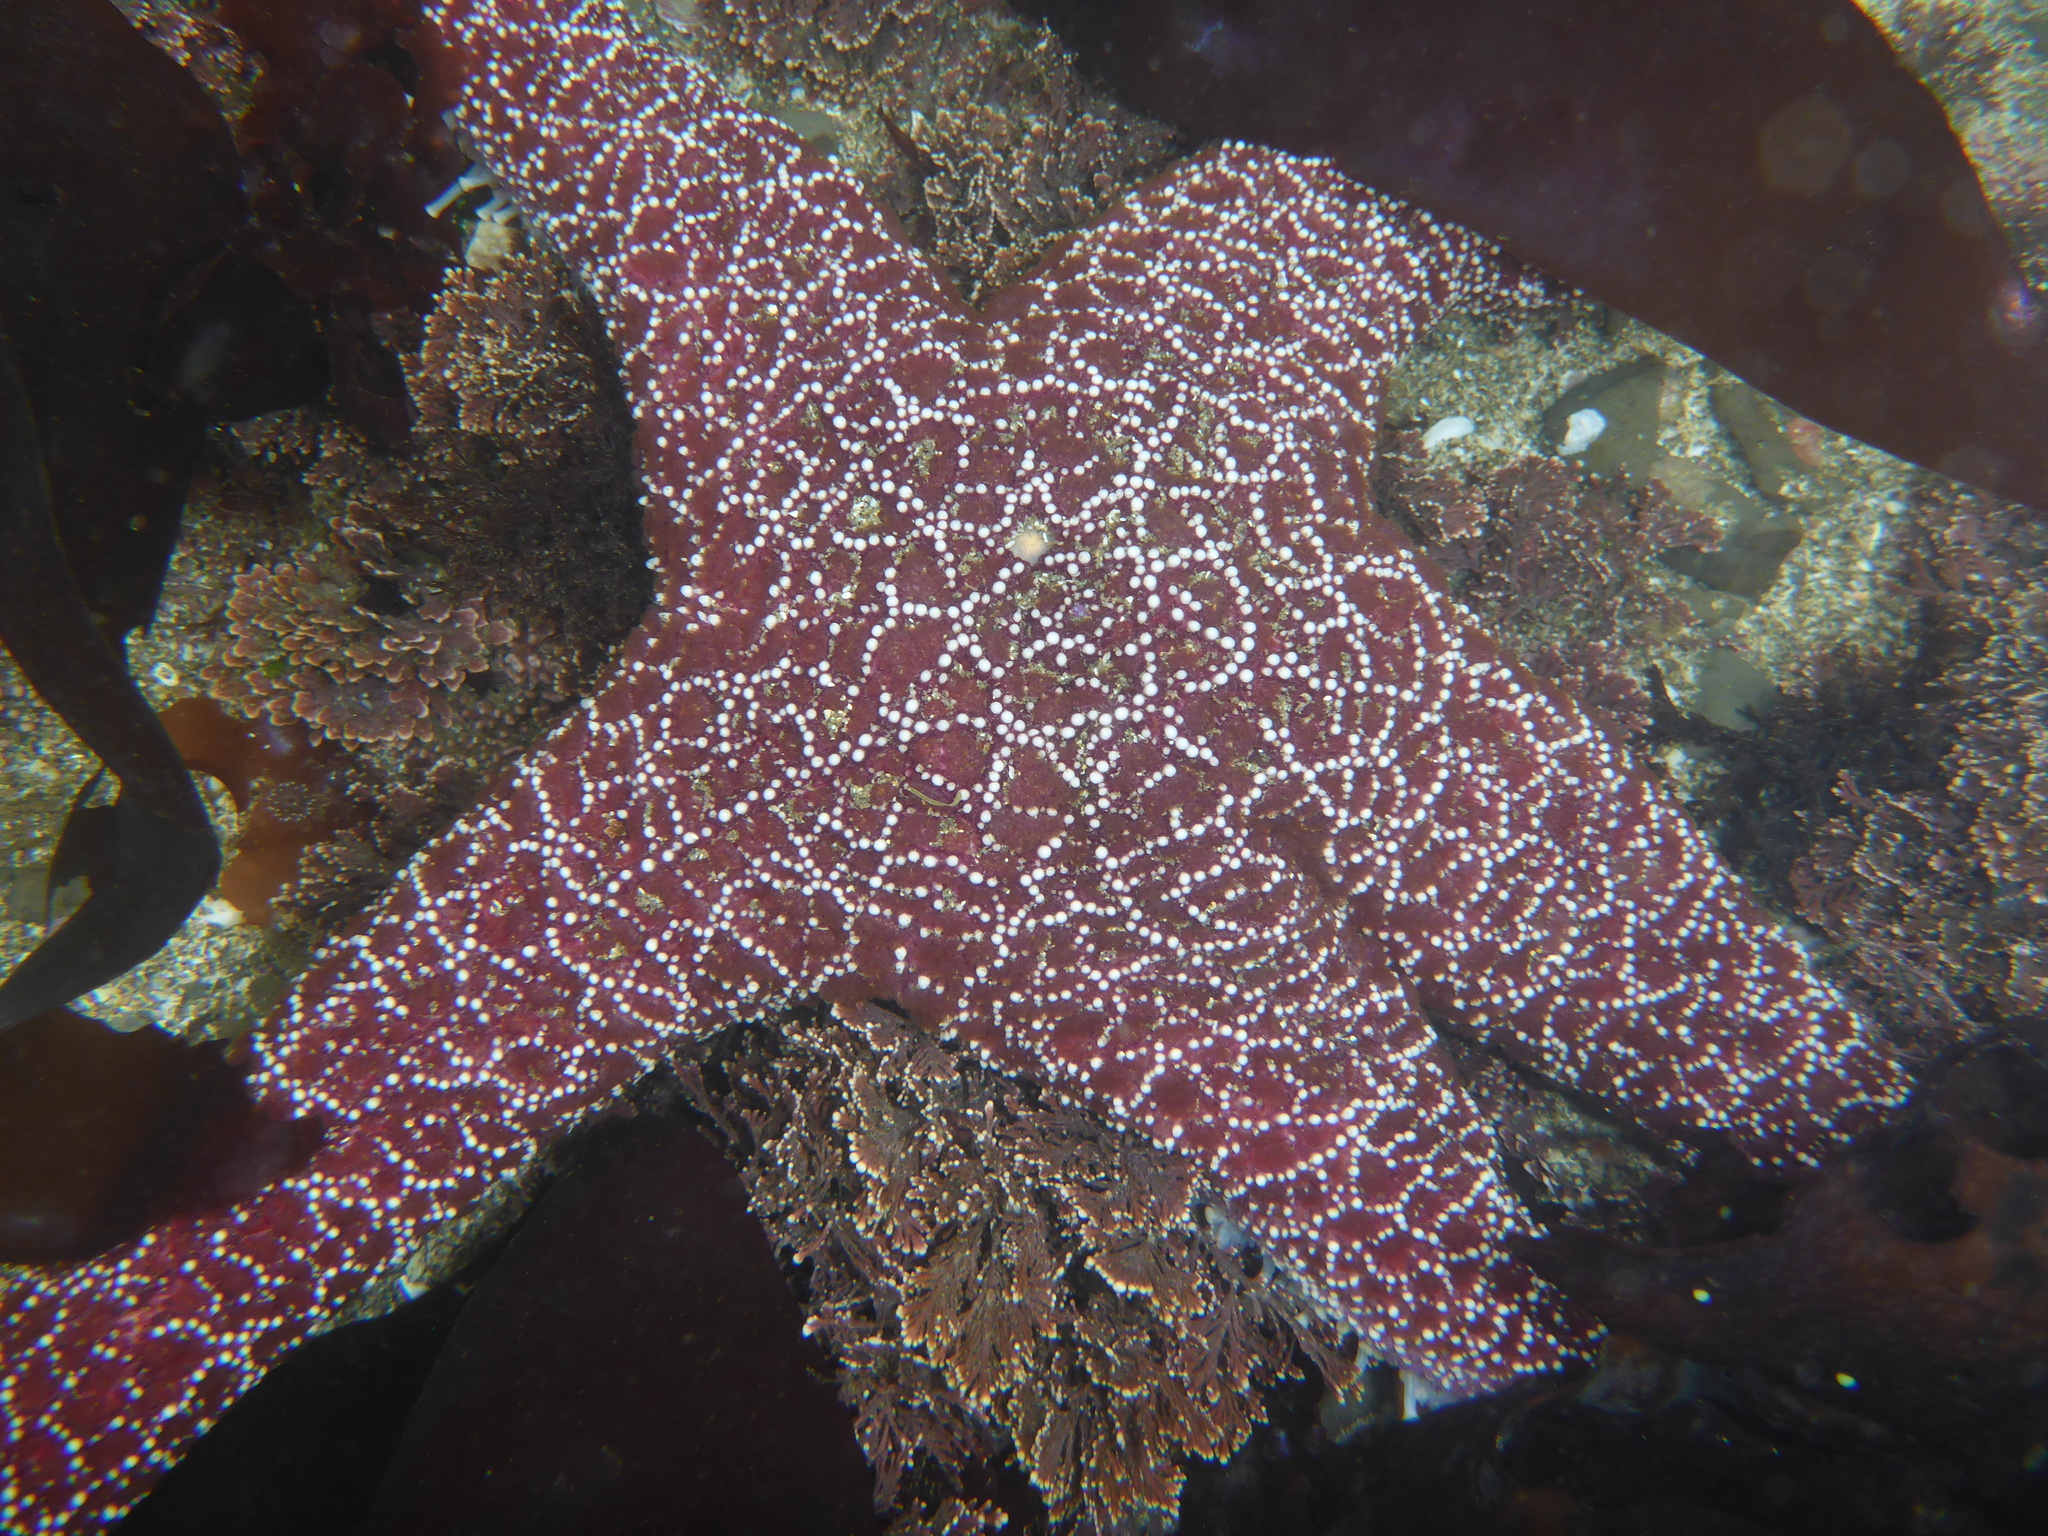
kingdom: Animalia
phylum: Echinodermata
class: Asteroidea
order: Forcipulatida
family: Asteriidae
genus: Pisaster
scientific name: Pisaster ochraceus
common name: Ochre stars
